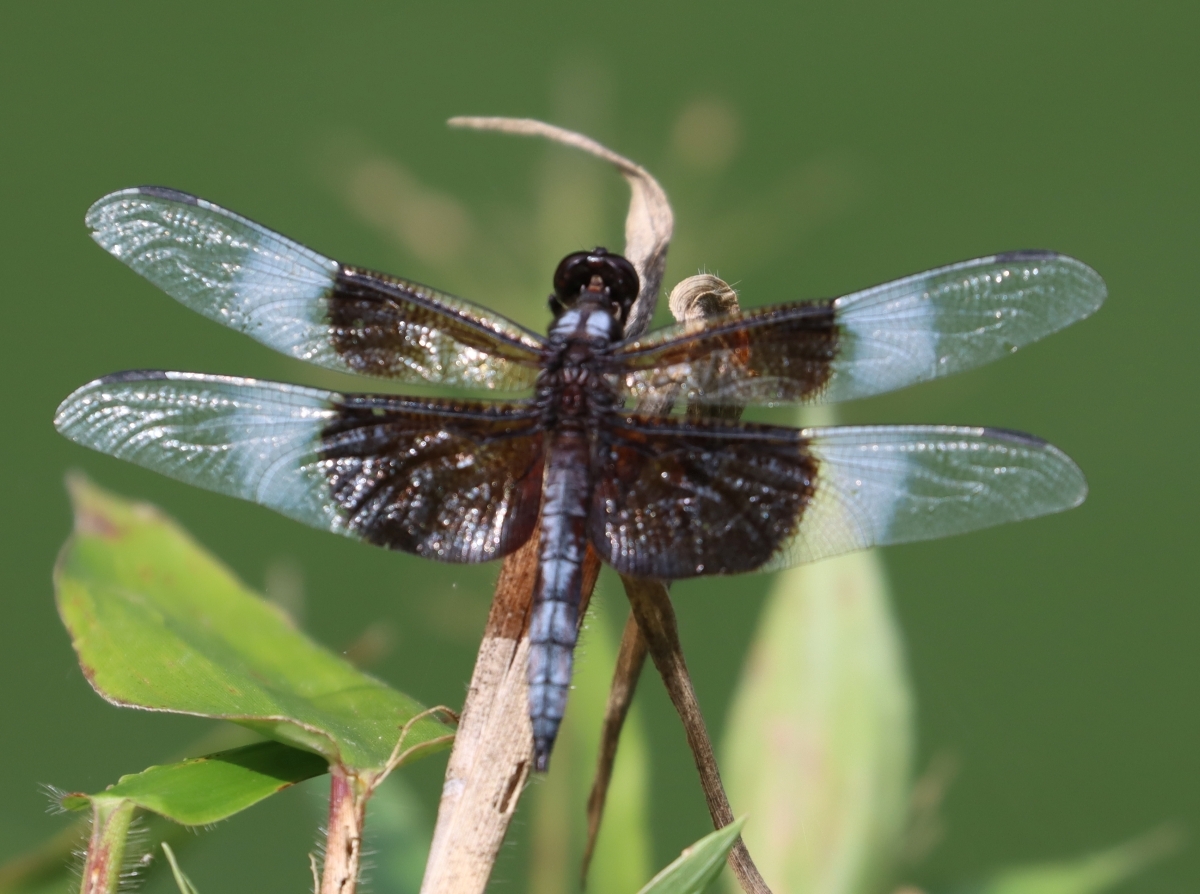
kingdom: Animalia
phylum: Arthropoda
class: Insecta
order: Odonata
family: Libellulidae
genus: Libellula
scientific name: Libellula luctuosa
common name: Widow skimmer
